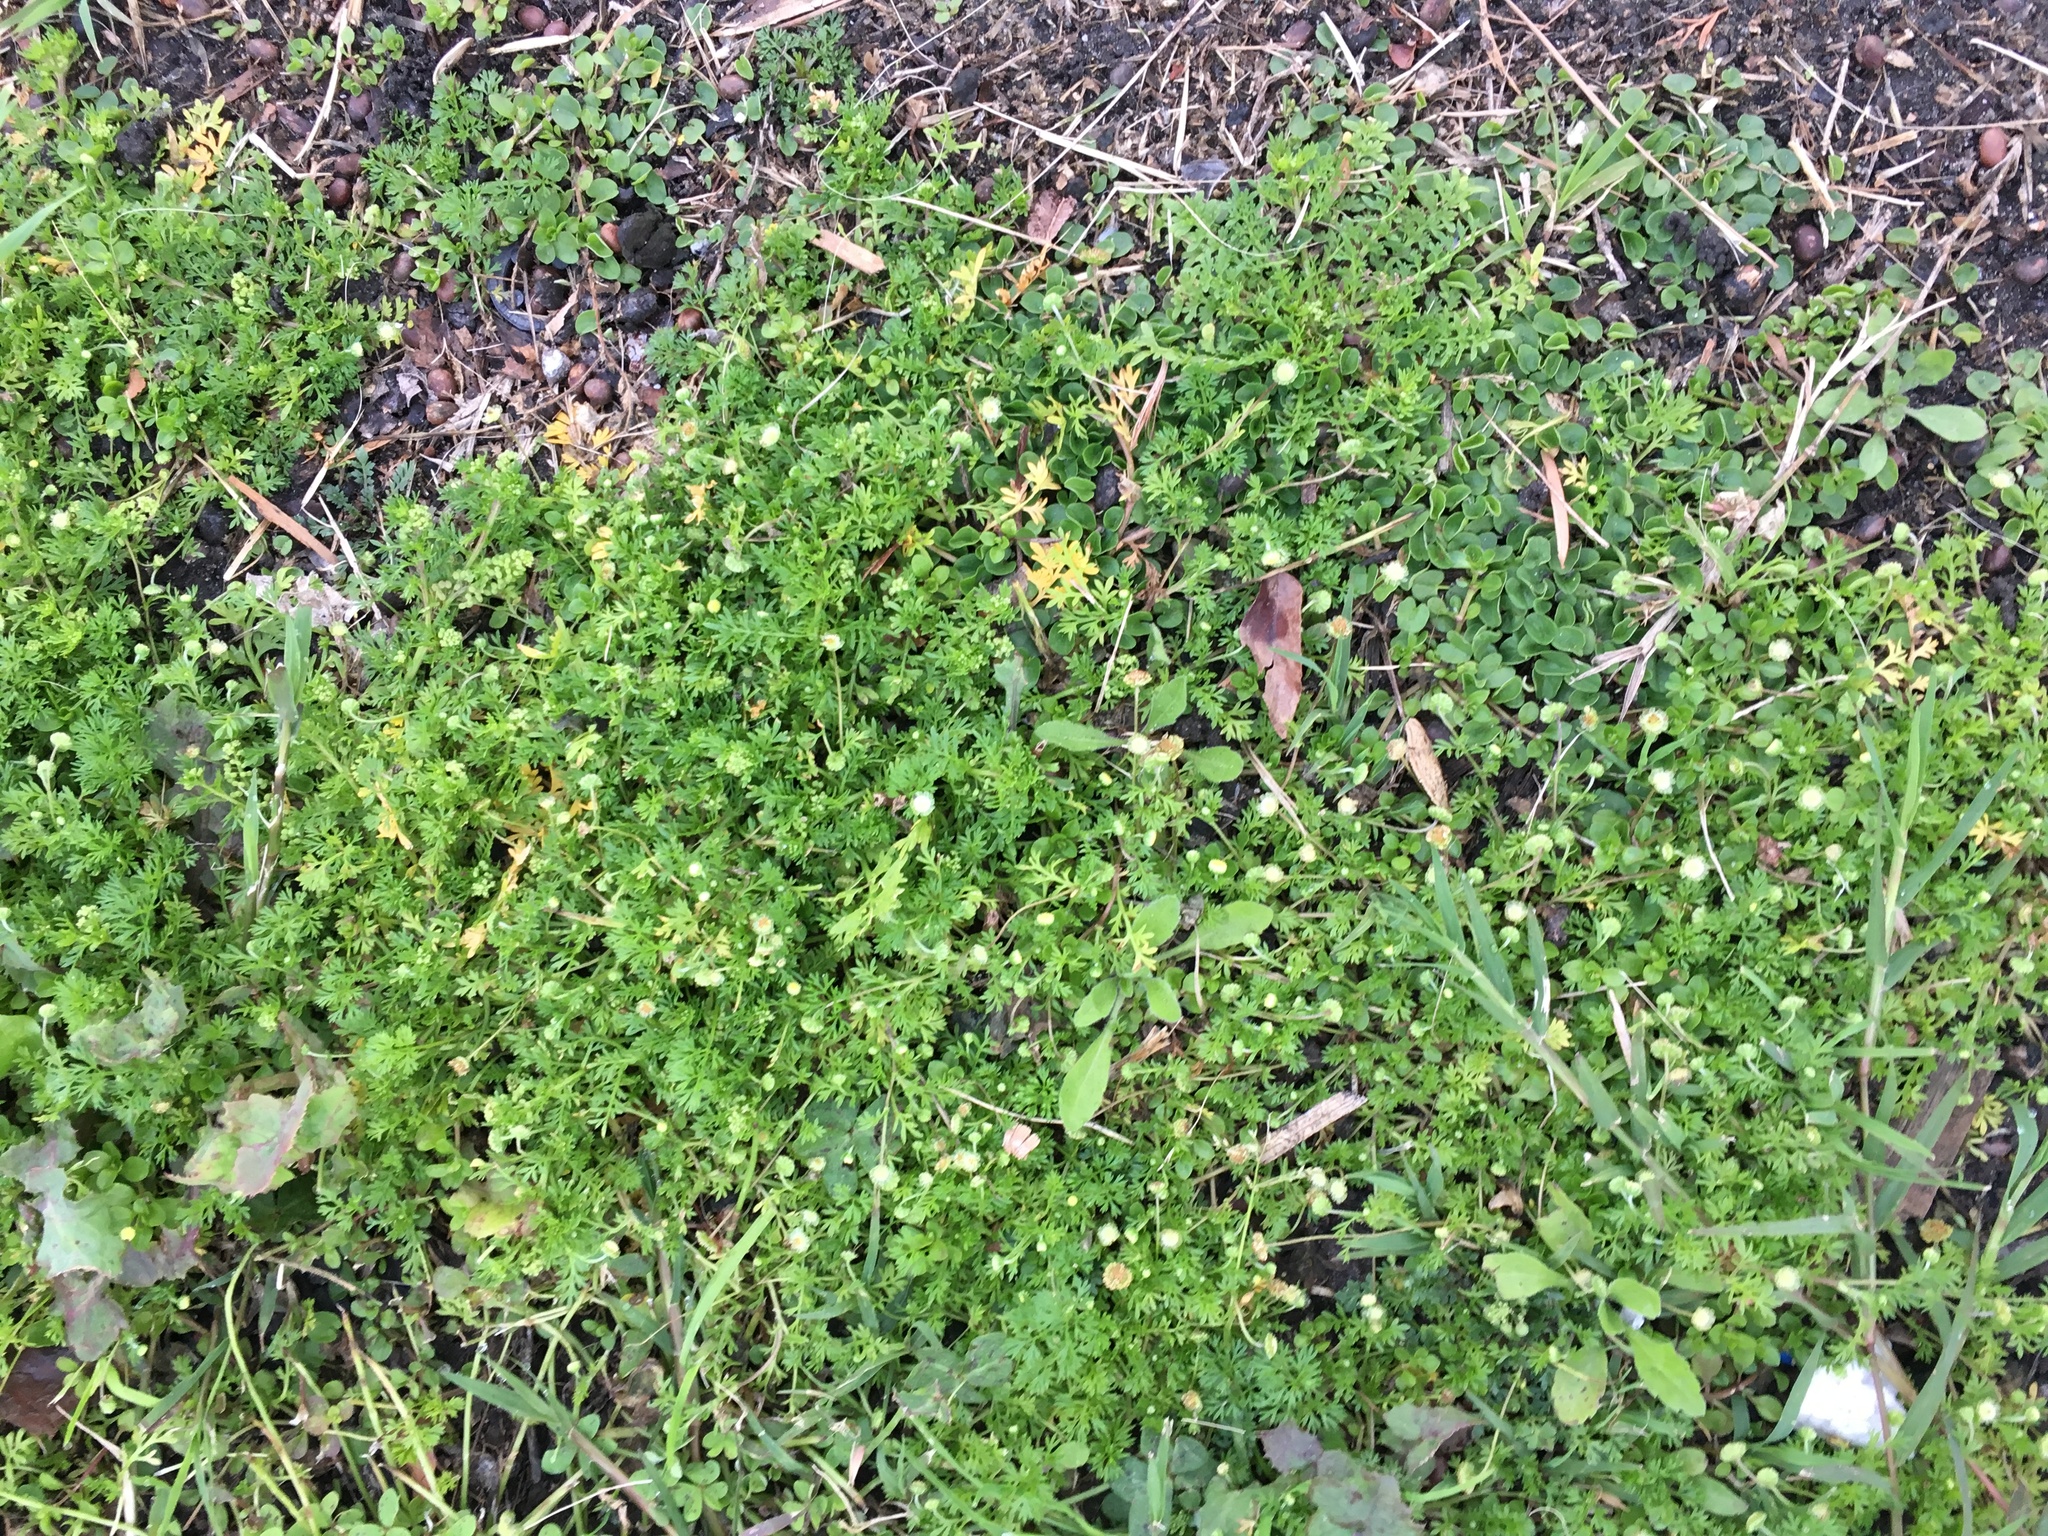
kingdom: Plantae
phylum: Tracheophyta
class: Magnoliopsida
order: Asterales
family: Asteraceae
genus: Cotula
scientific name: Cotula australis
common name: Australian waterbuttons
